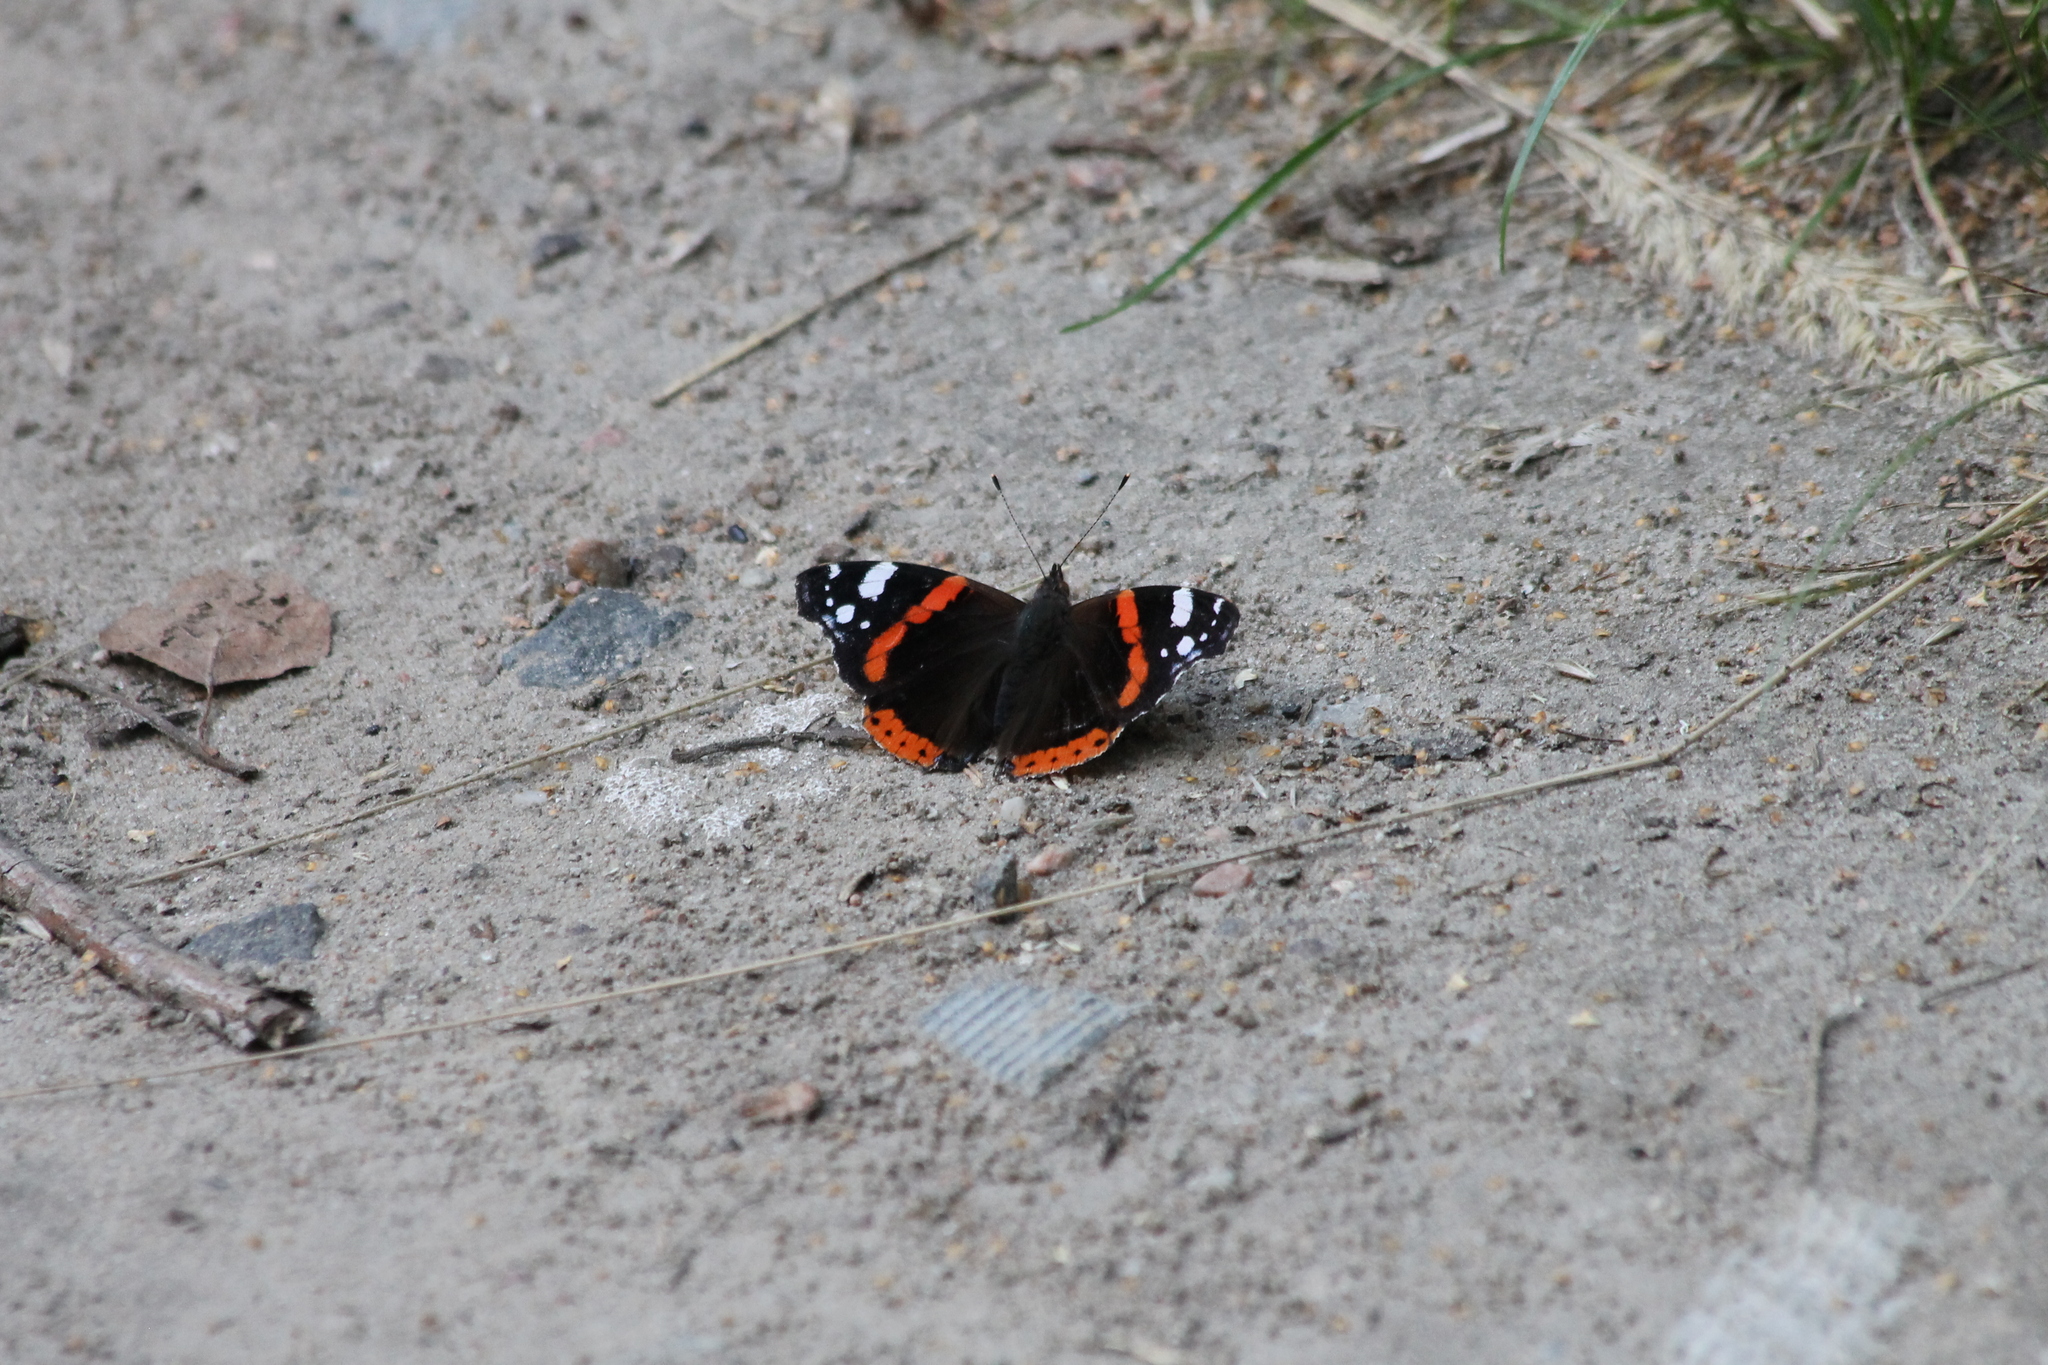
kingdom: Animalia
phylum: Arthropoda
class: Insecta
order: Lepidoptera
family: Nymphalidae
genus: Vanessa
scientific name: Vanessa atalanta
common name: Red admiral
